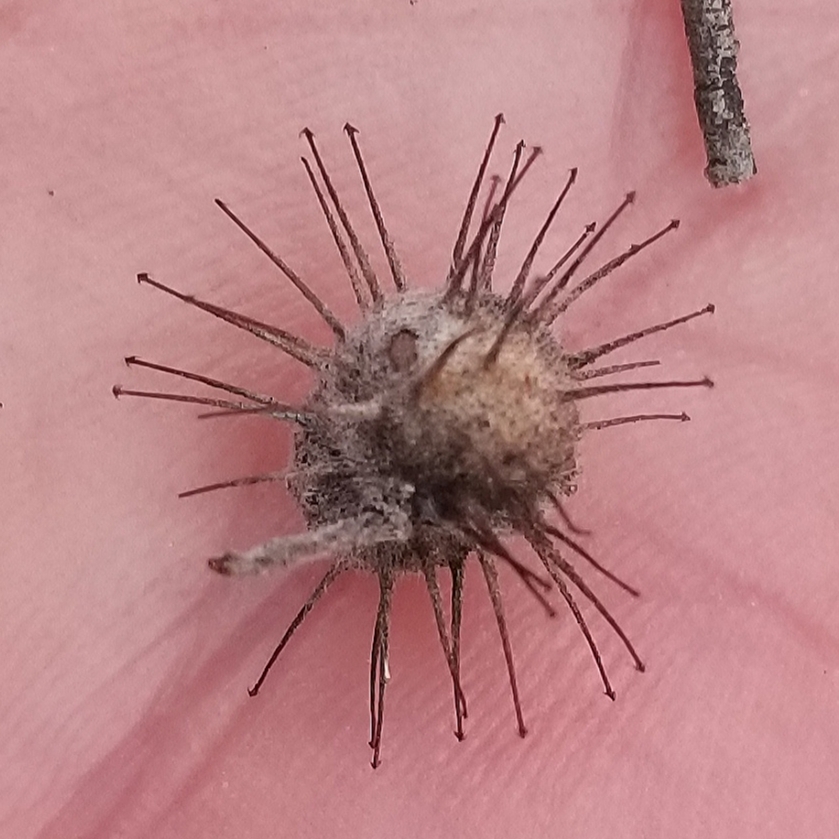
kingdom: Plantae
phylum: Tracheophyta
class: Magnoliopsida
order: Zygophyllales
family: Krameriaceae
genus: Krameria
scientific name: Krameria bicolor
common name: White ratany
